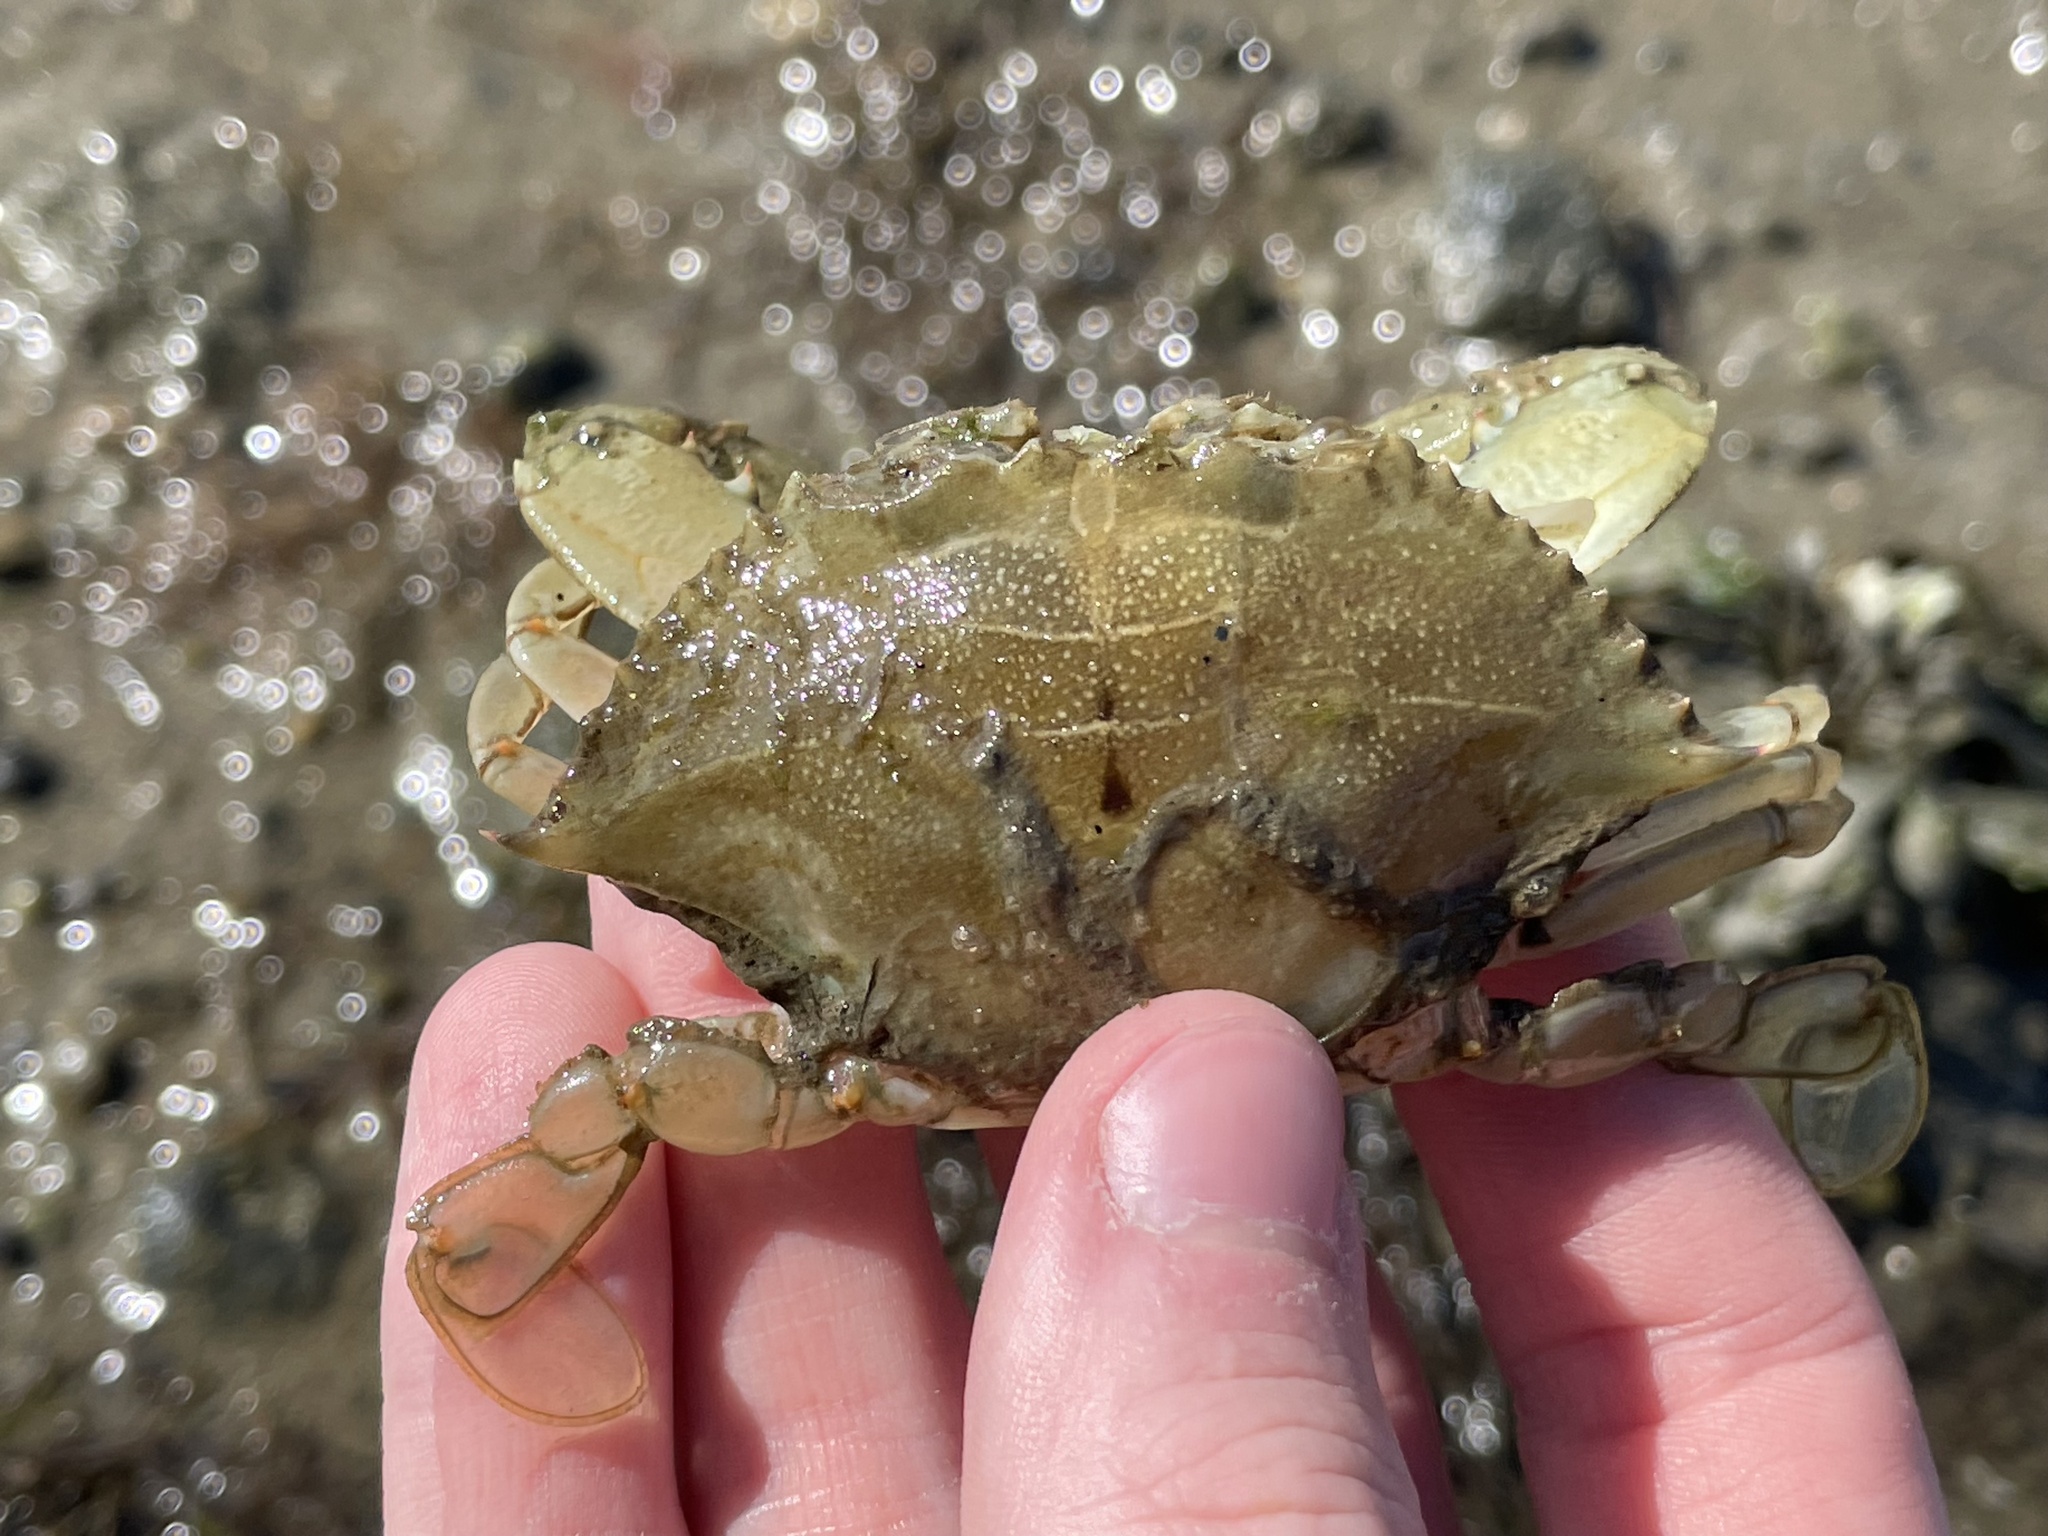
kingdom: Animalia
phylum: Arthropoda
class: Malacostraca
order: Decapoda
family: Portunidae
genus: Callinectes
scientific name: Callinectes sapidus
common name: Blue crab
